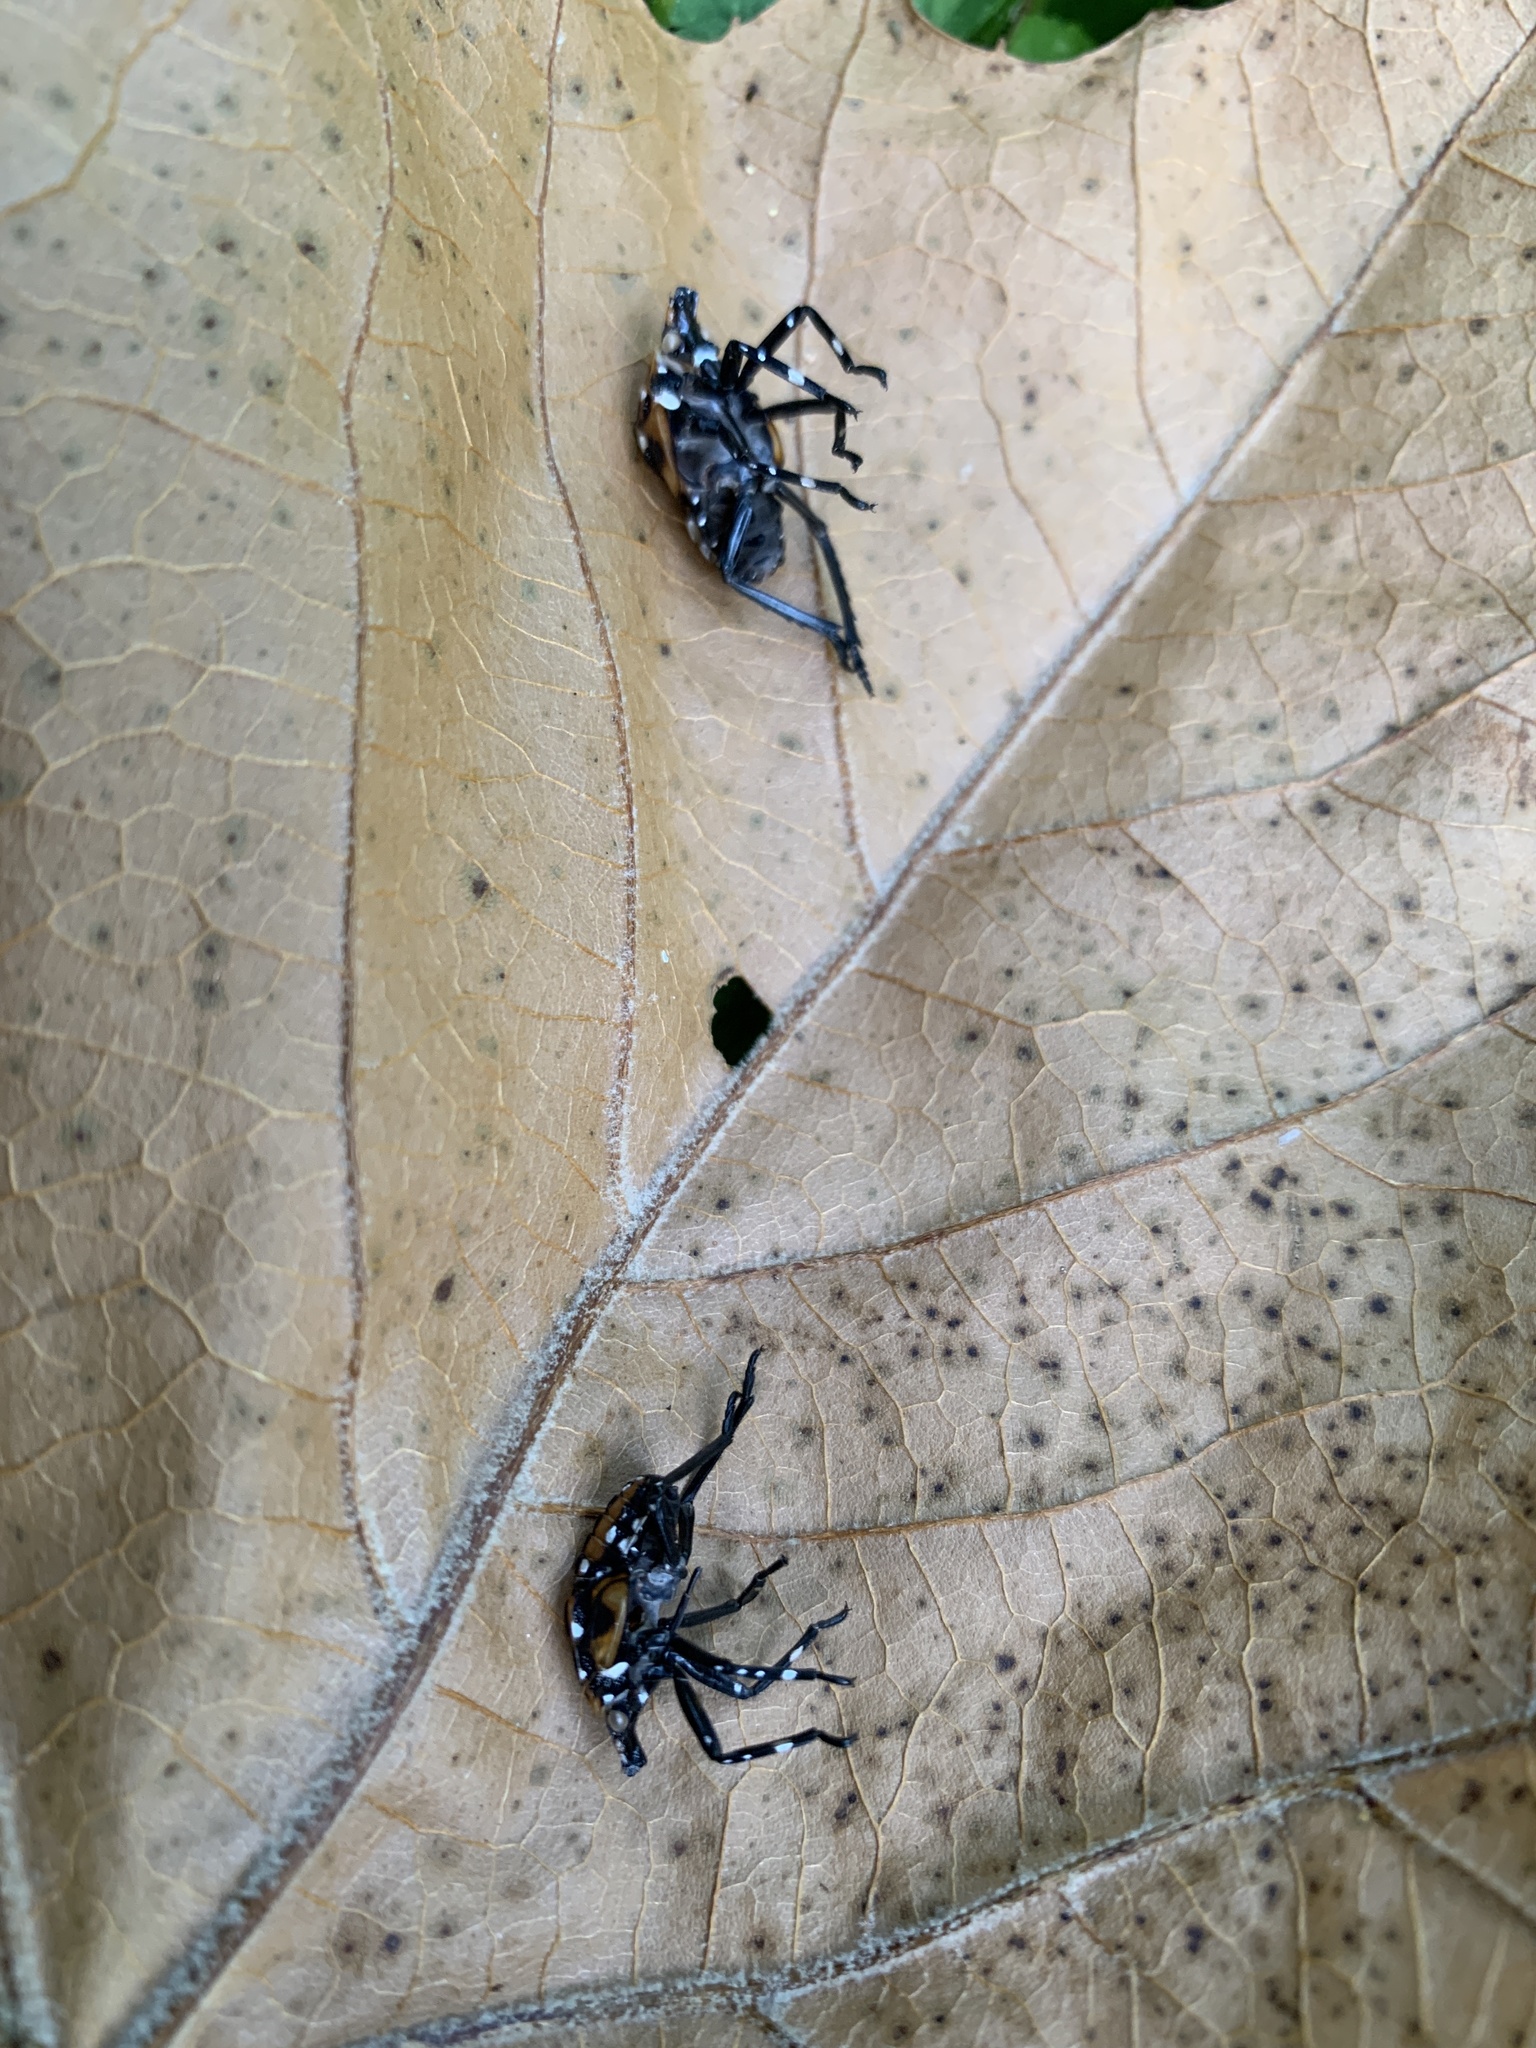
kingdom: Animalia
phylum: Arthropoda
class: Insecta
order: Hemiptera
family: Fulgoridae
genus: Lycorma
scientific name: Lycorma delicatula
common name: Spotted lanternfly
